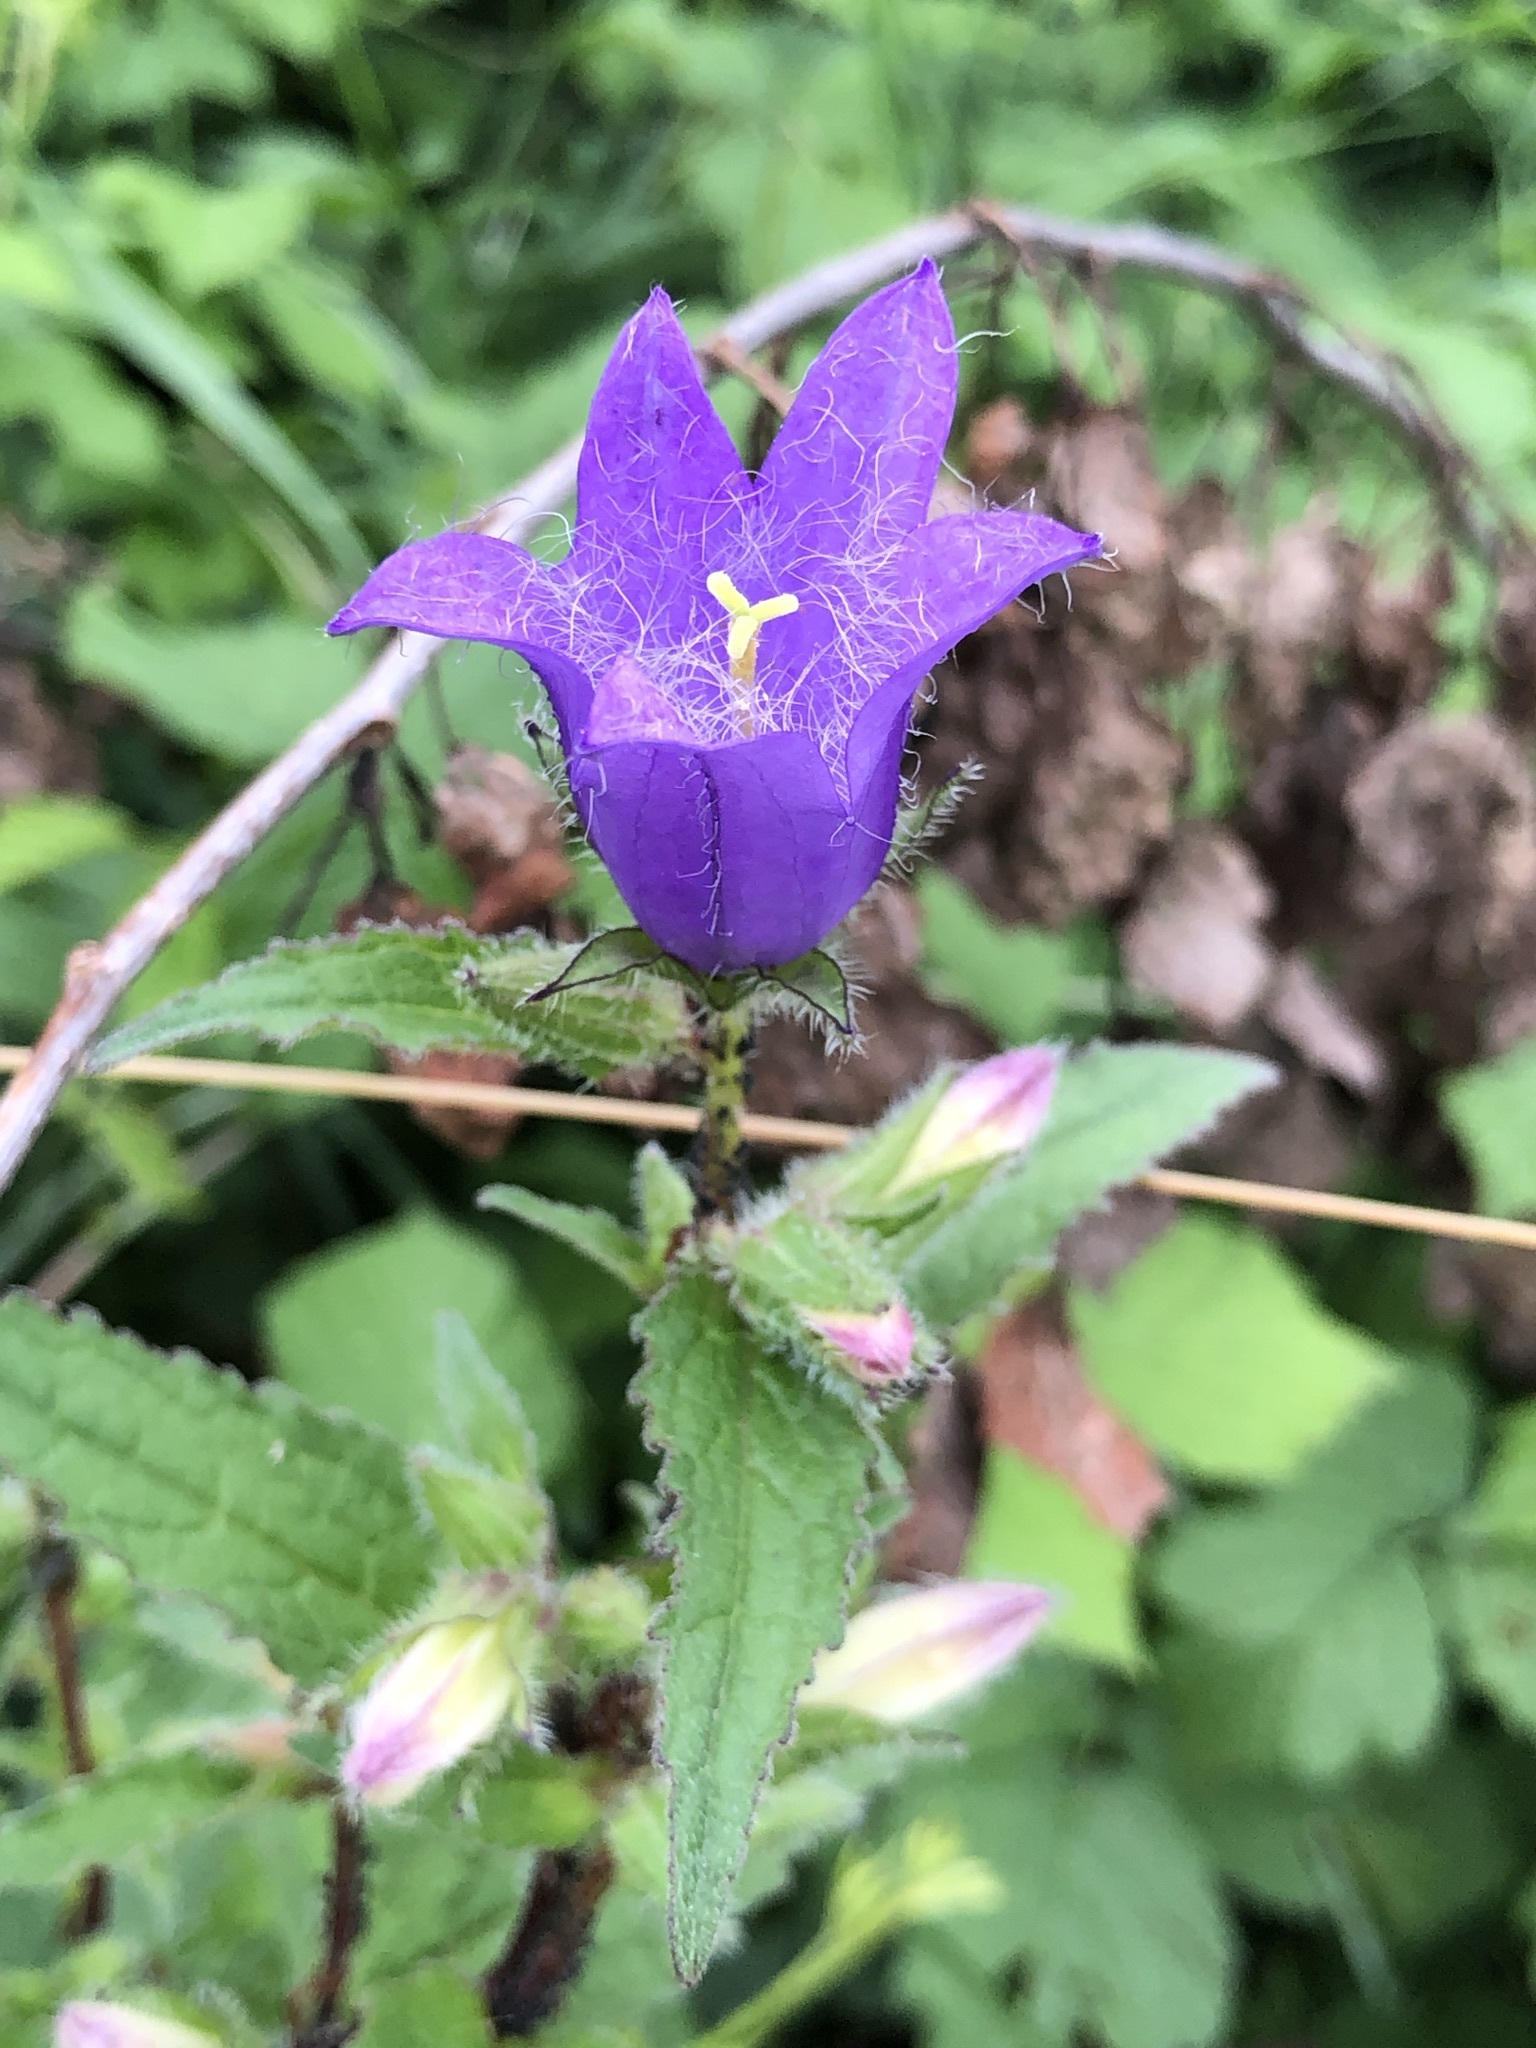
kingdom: Plantae
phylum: Tracheophyta
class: Magnoliopsida
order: Asterales
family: Campanulaceae
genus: Campanula
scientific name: Campanula trachelium
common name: Nettle-leaved bellflower
